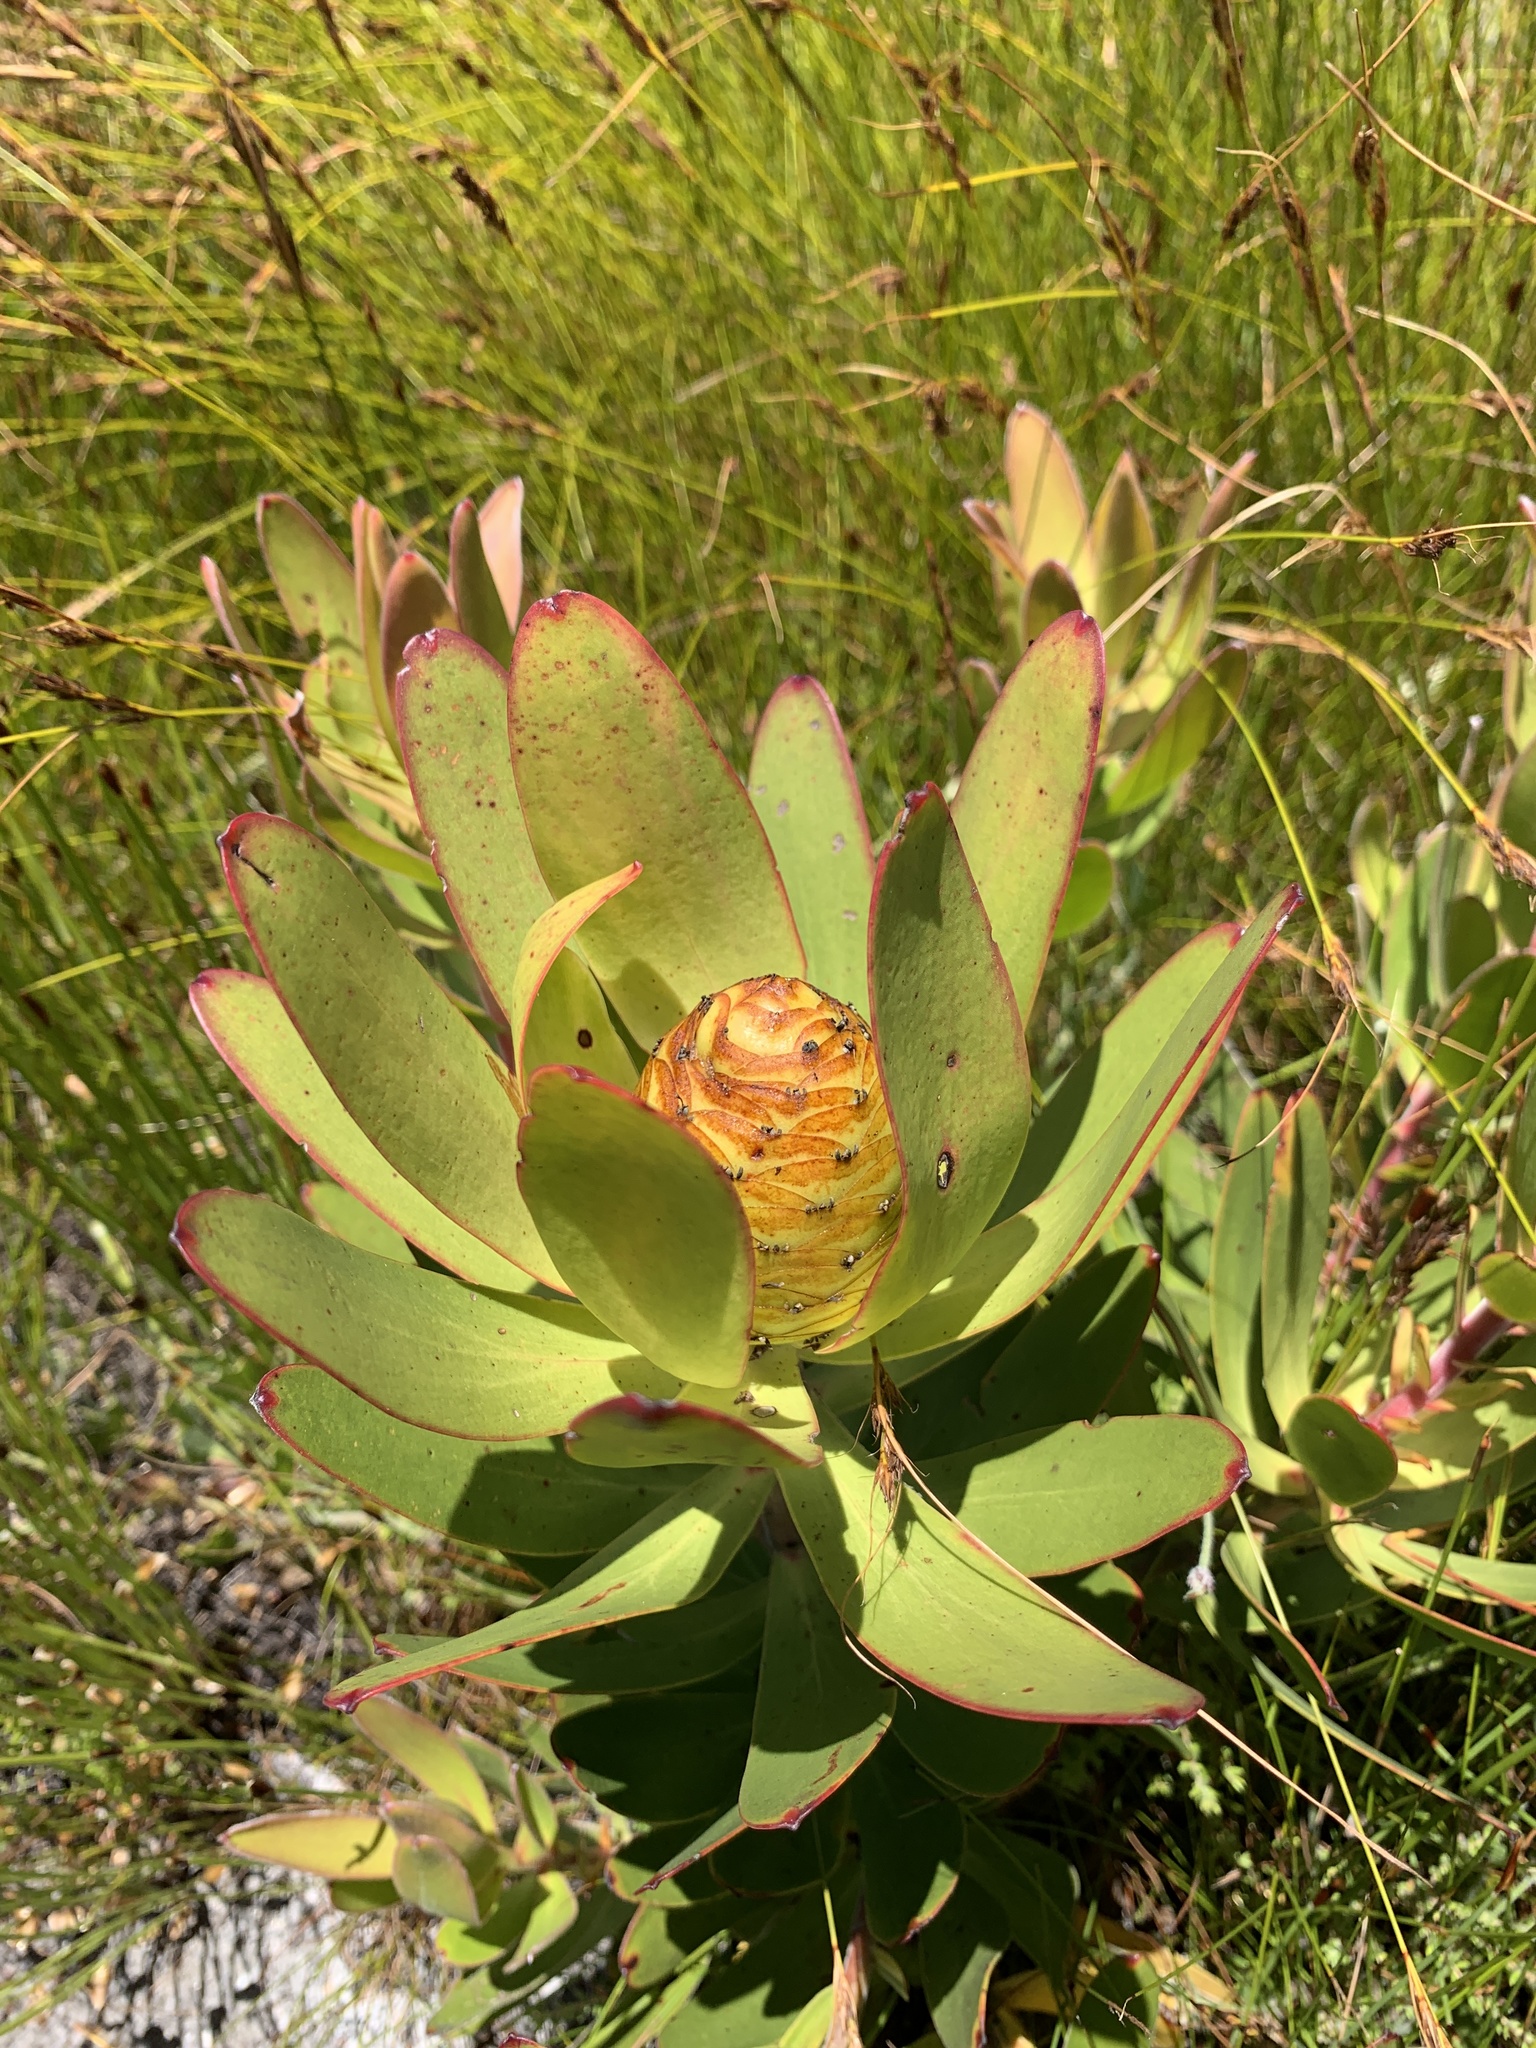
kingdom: Plantae
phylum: Tracheophyta
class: Magnoliopsida
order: Proteales
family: Proteaceae
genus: Leucadendron
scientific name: Leucadendron gandogeri
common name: Broad-leaf conebush
